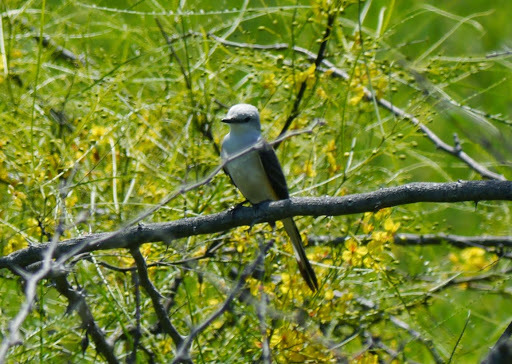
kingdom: Animalia
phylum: Chordata
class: Aves
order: Passeriformes
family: Tyrannidae
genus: Tyrannus
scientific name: Tyrannus forficatus
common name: Scissor-tailed flycatcher
